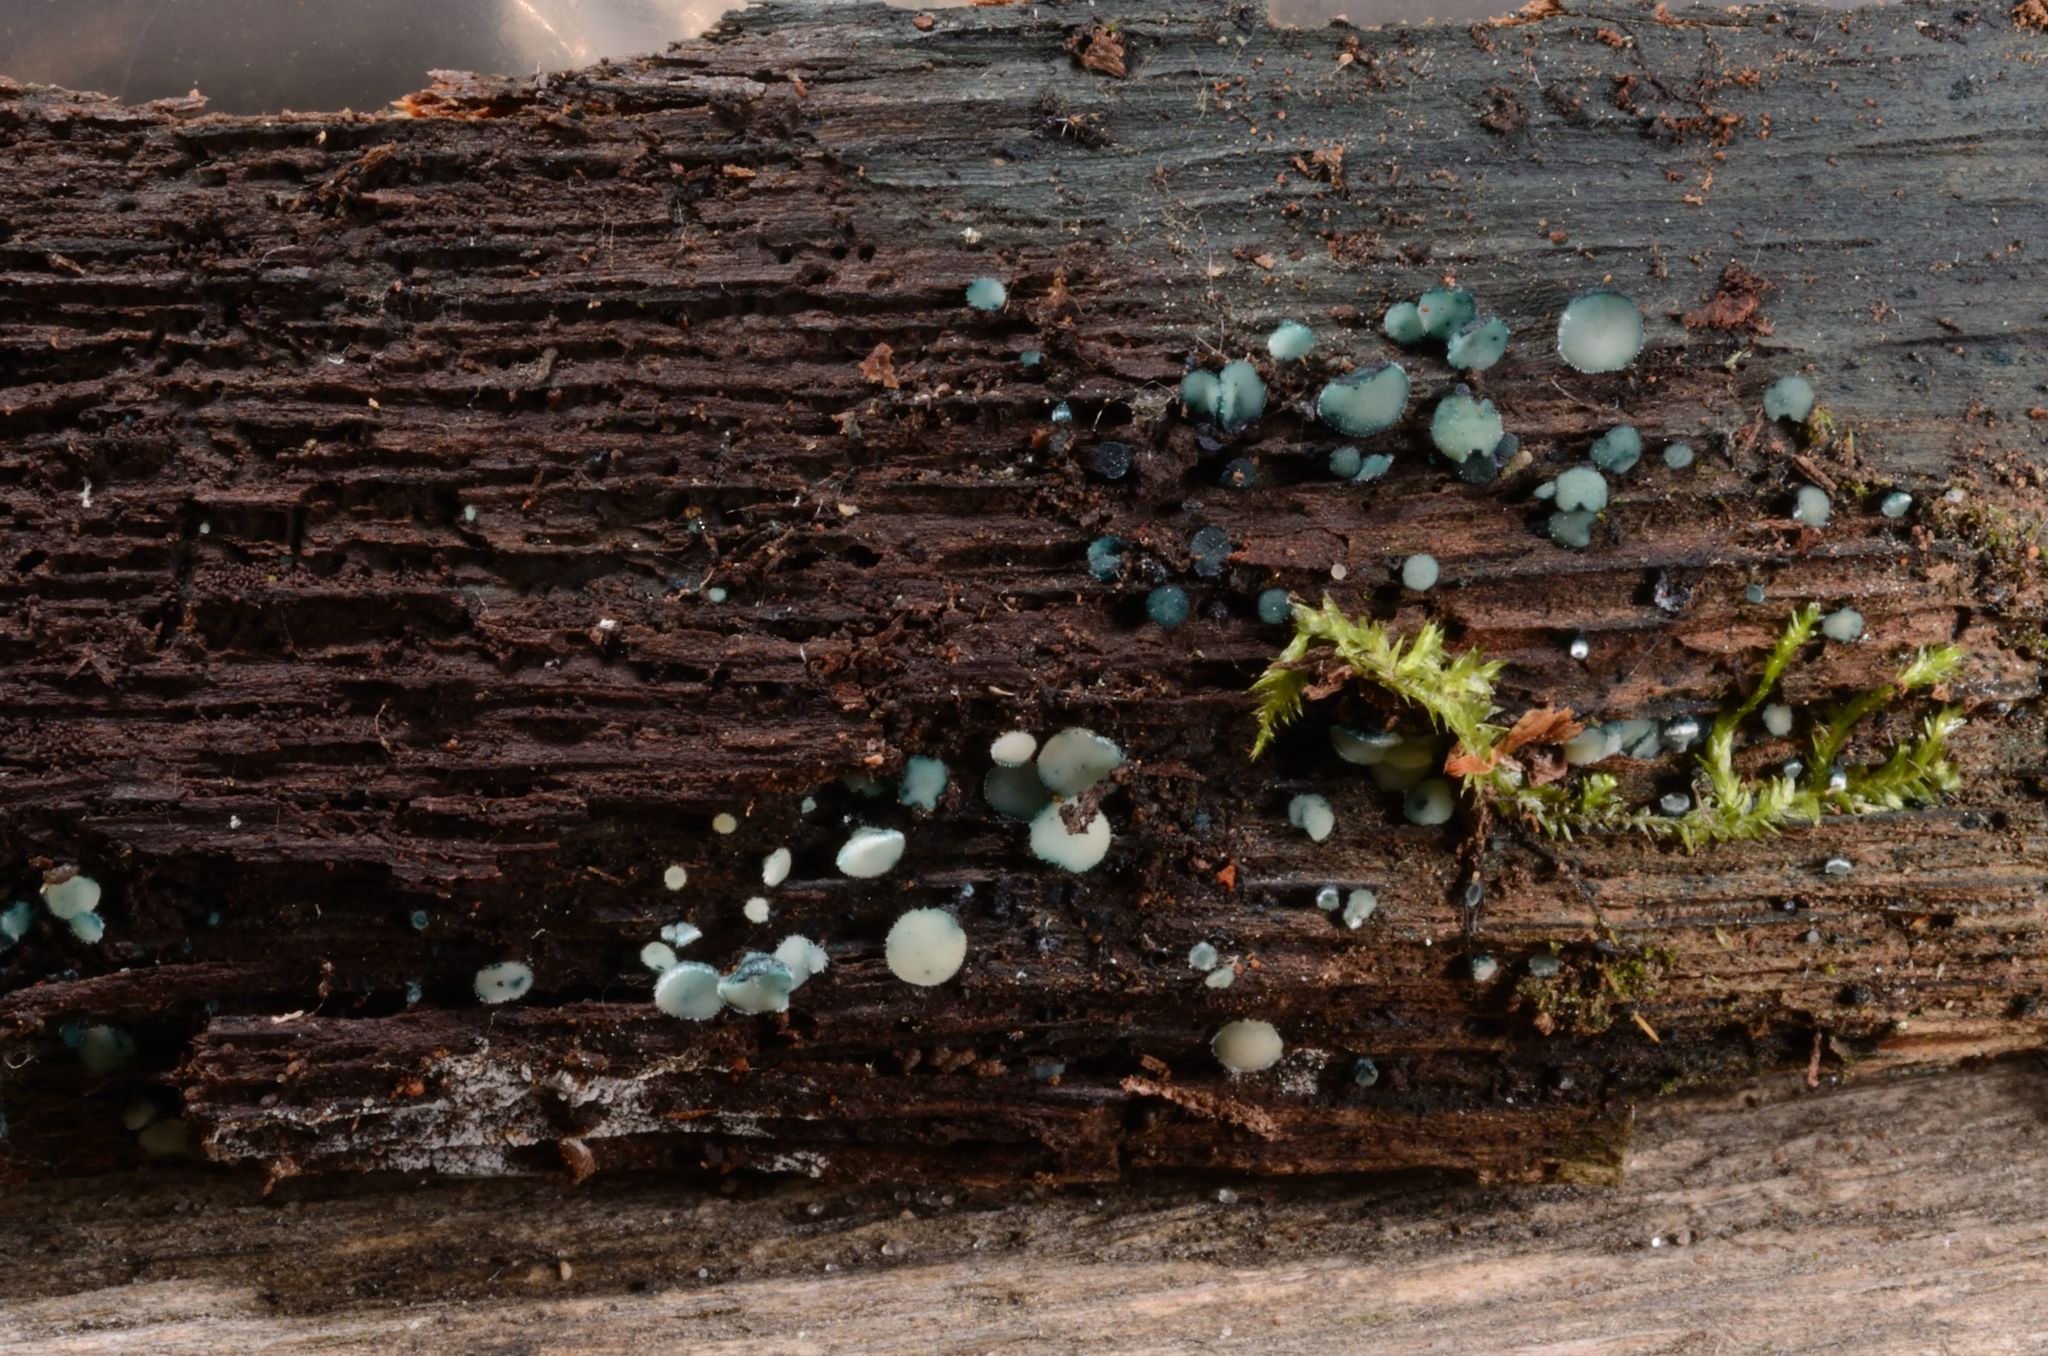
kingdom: Fungi
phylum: Ascomycota
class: Leotiomycetes
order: Helotiales
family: Hyaloscyphaceae
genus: Aeruginoscyphus
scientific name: Aeruginoscyphus sericeus
